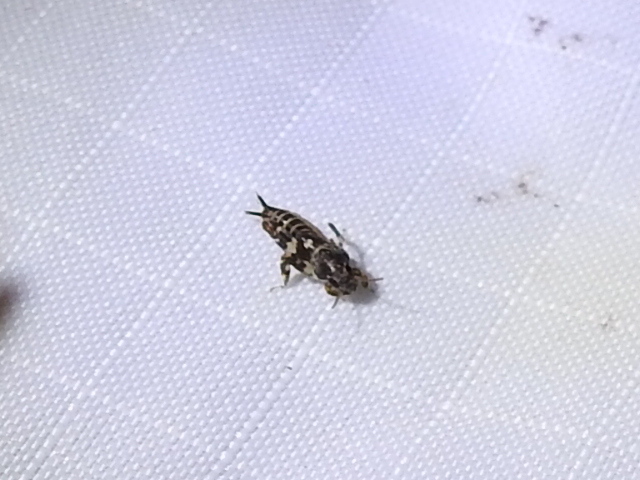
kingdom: Animalia
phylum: Arthropoda
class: Insecta
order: Orthoptera
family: Tridactylidae
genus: Ellipes
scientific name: Ellipes minuta
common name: Minute pygmy locust
